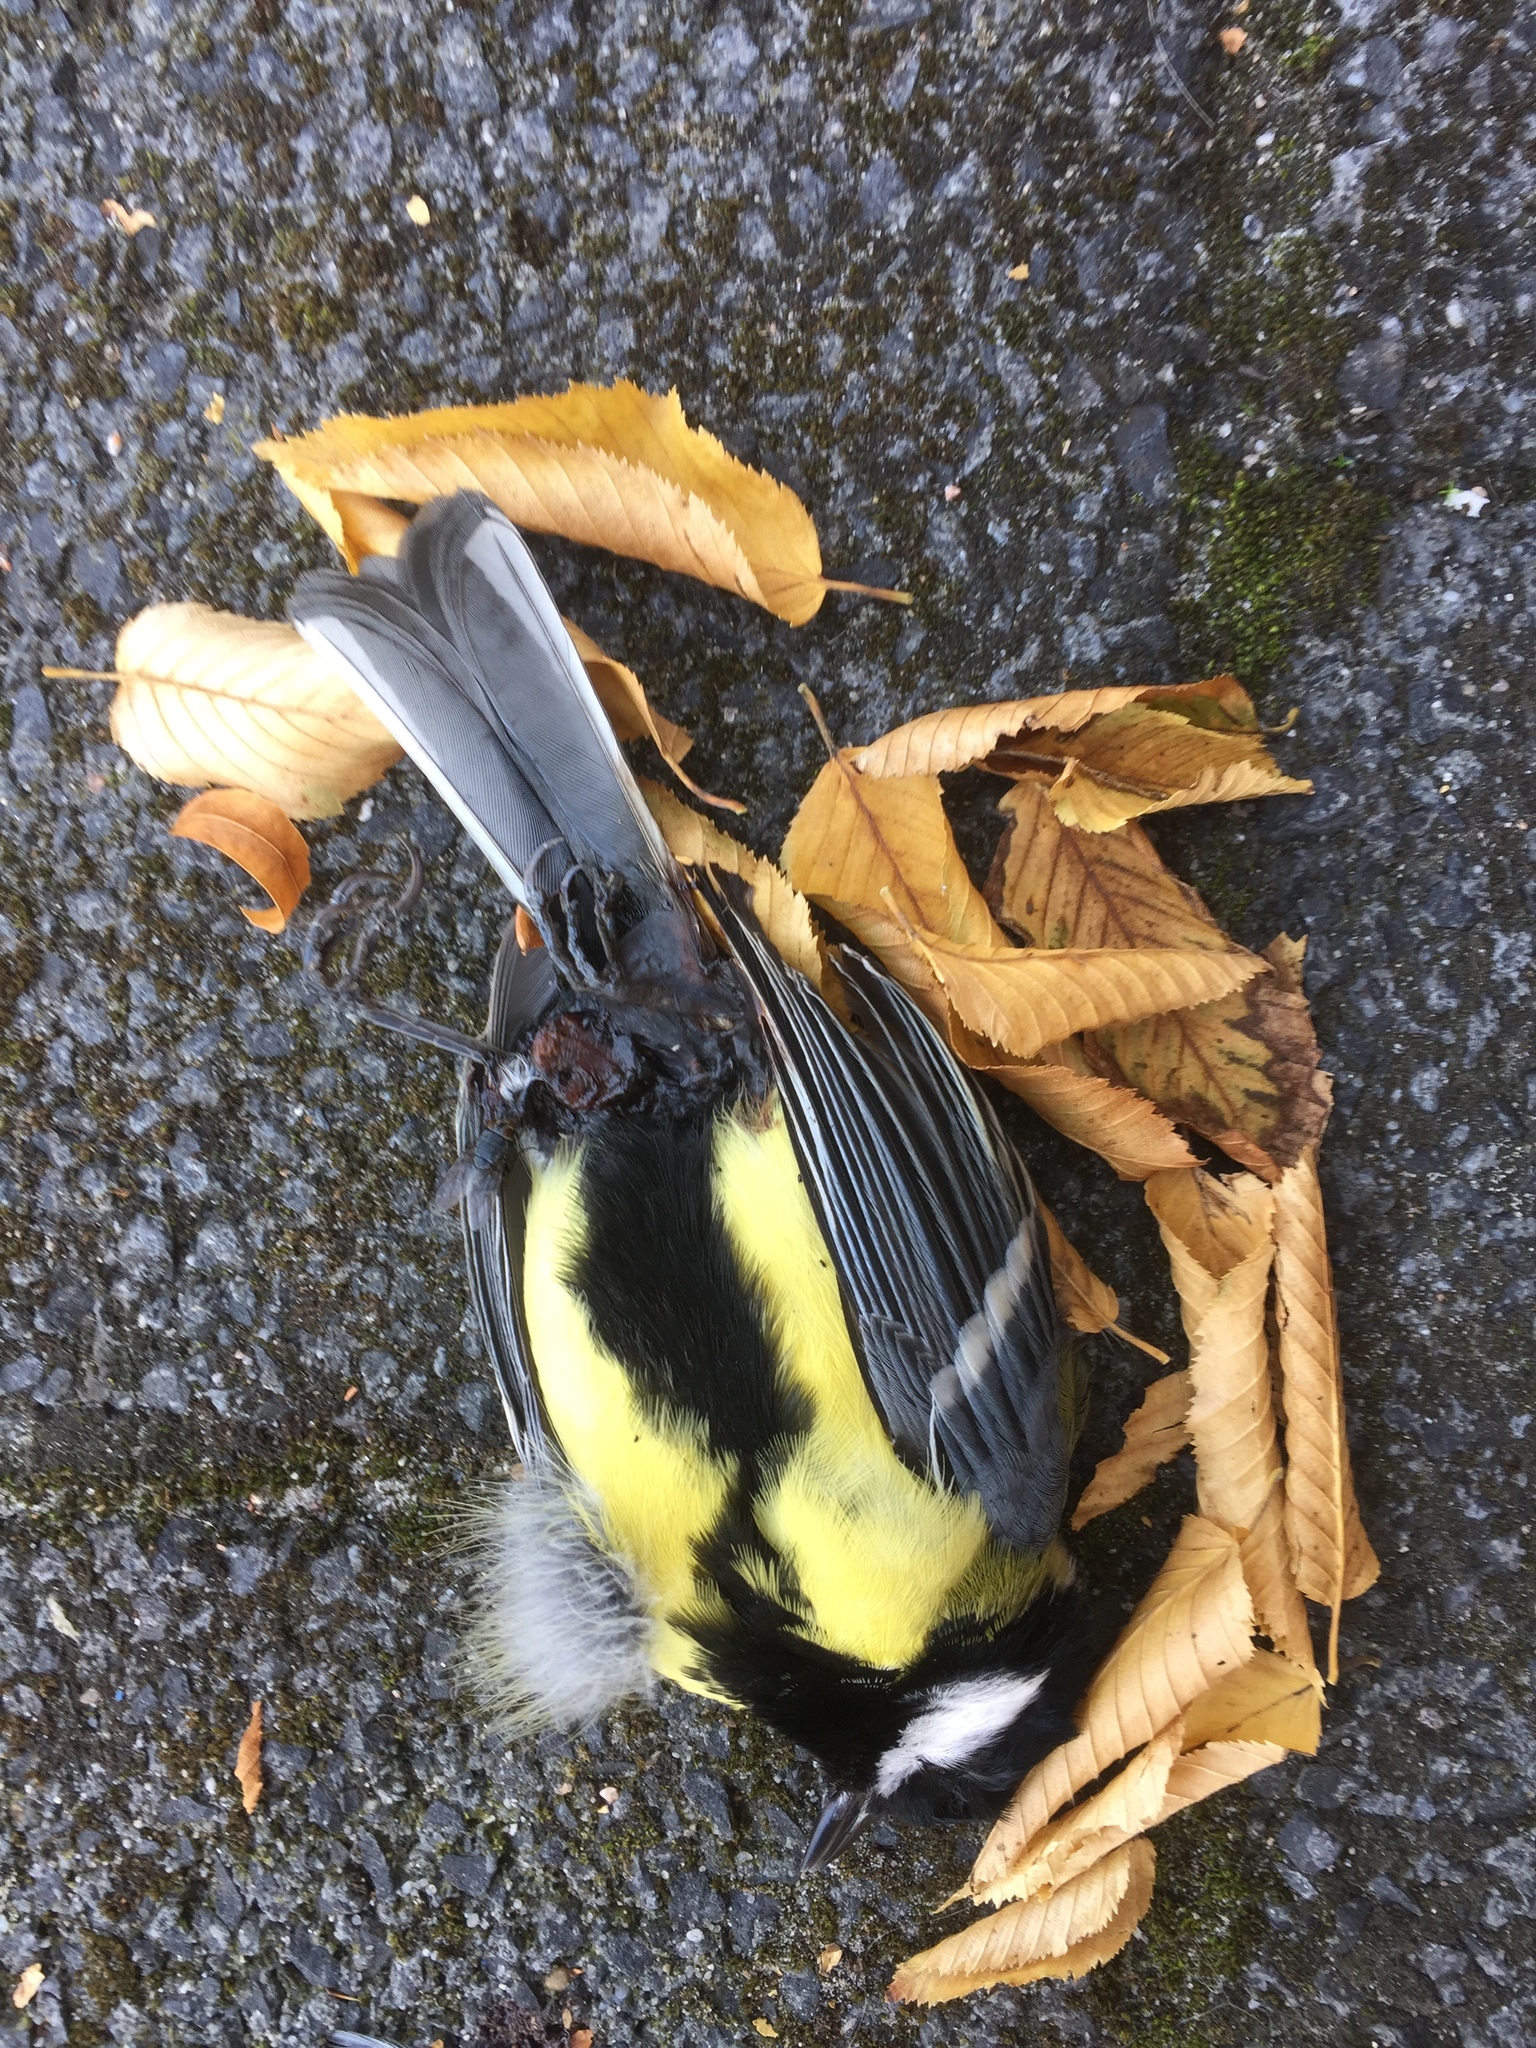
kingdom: Animalia
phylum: Chordata
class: Aves
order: Passeriformes
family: Paridae
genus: Parus
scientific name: Parus major
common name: Great tit
